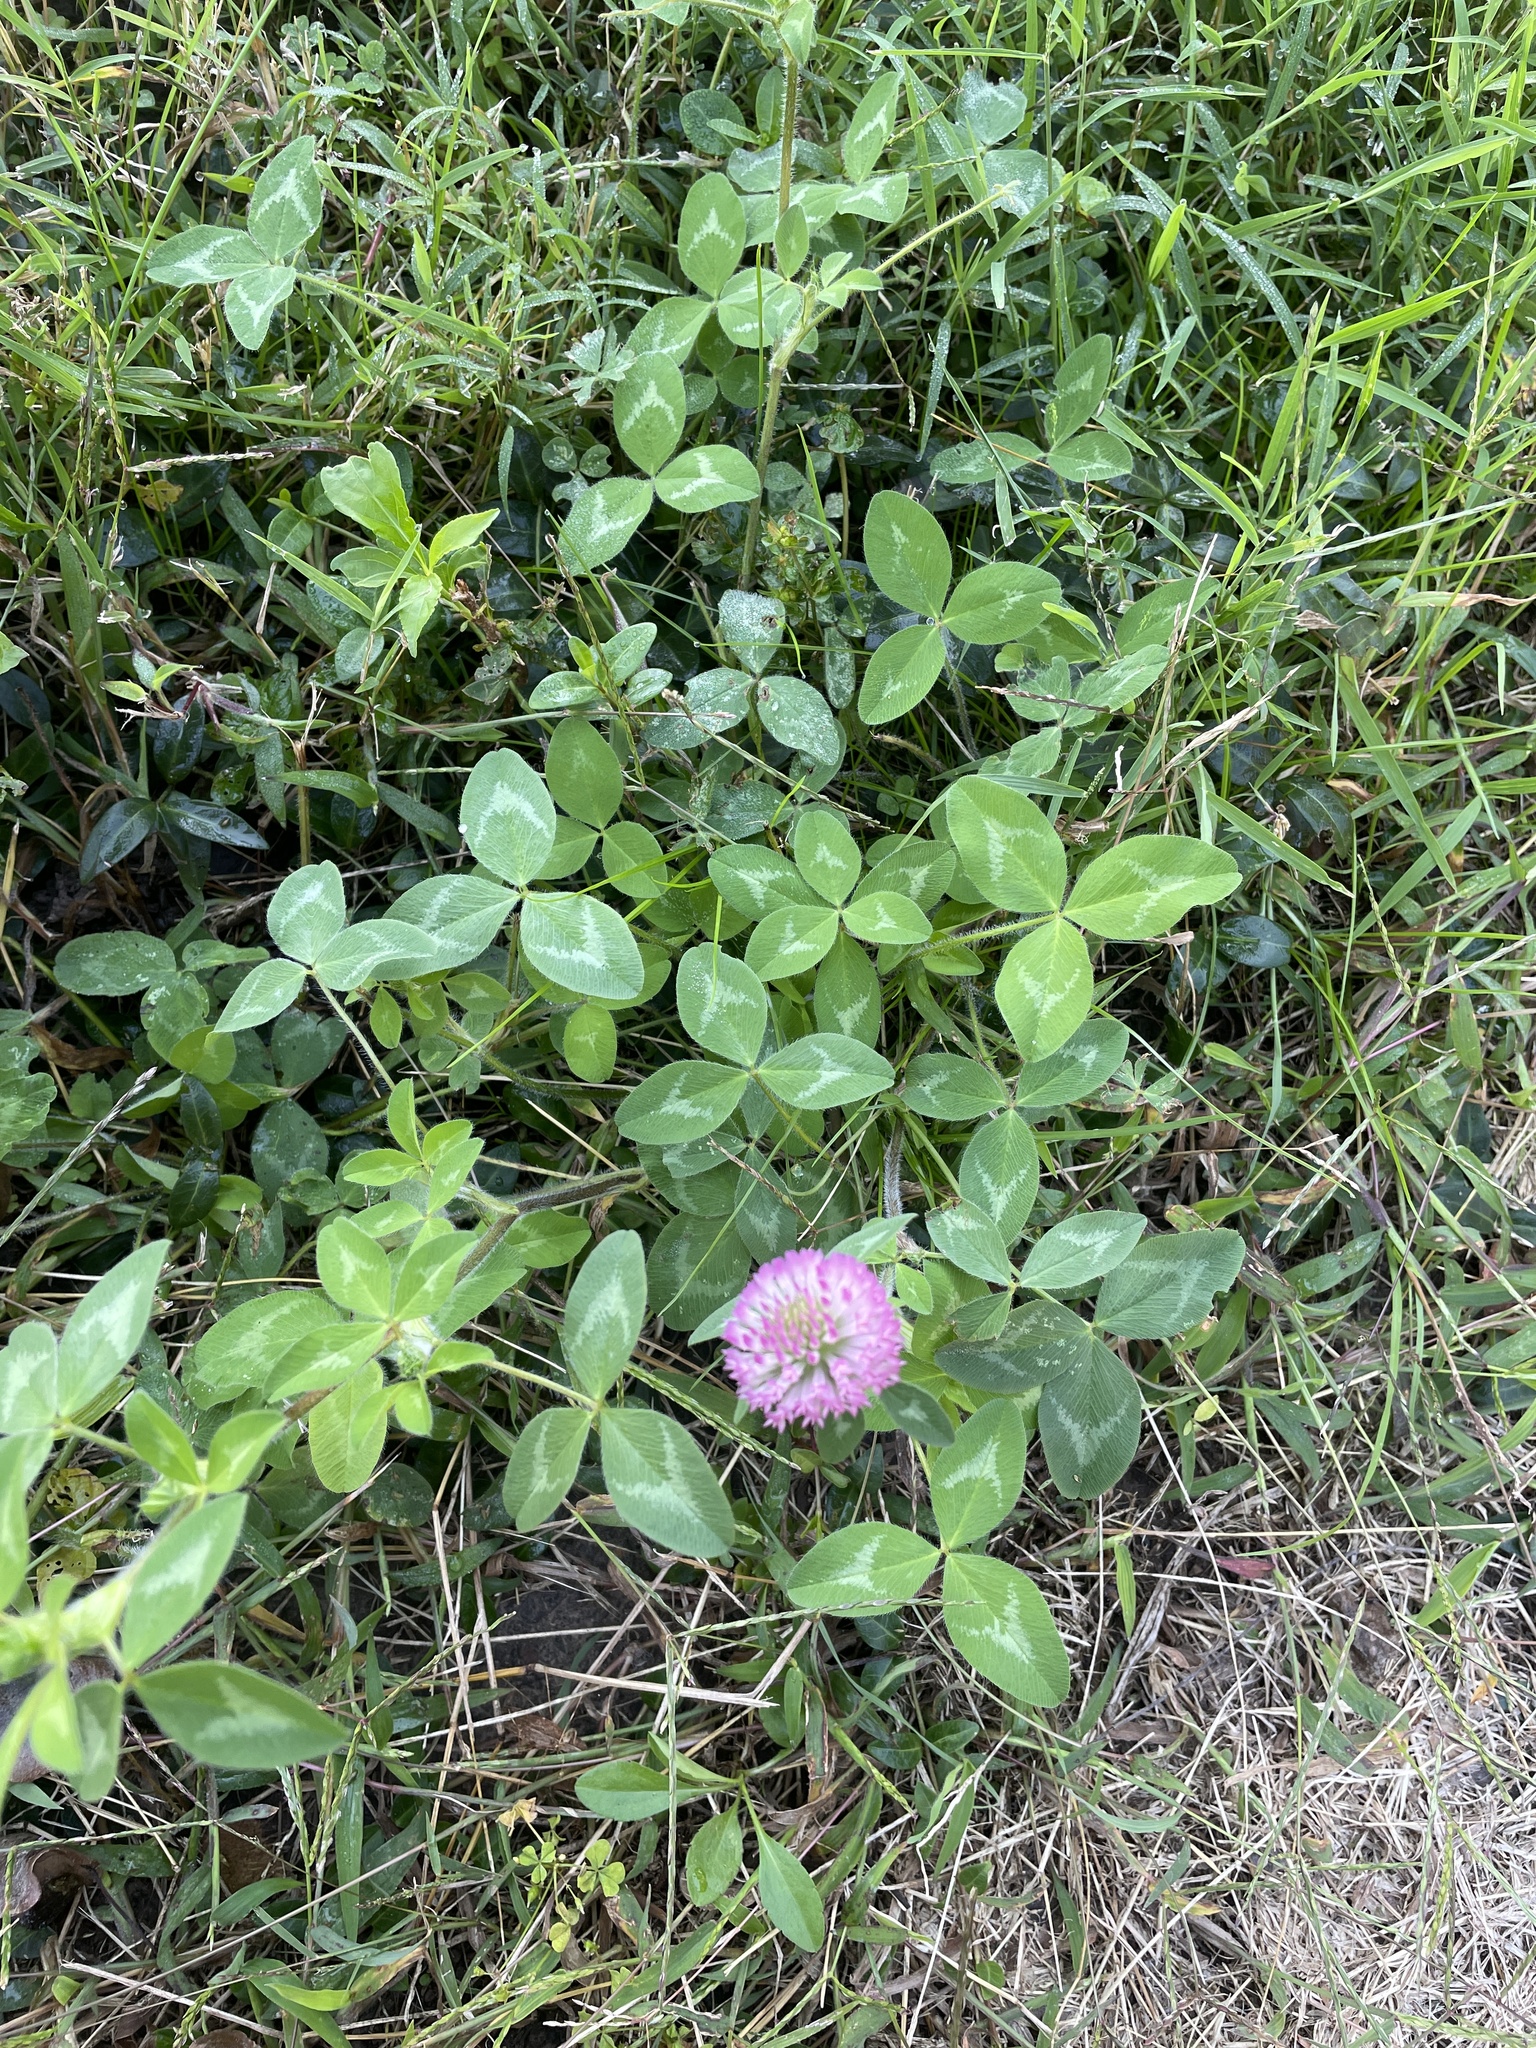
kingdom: Plantae
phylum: Tracheophyta
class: Magnoliopsida
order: Fabales
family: Fabaceae
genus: Trifolium
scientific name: Trifolium pratense
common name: Red clover
